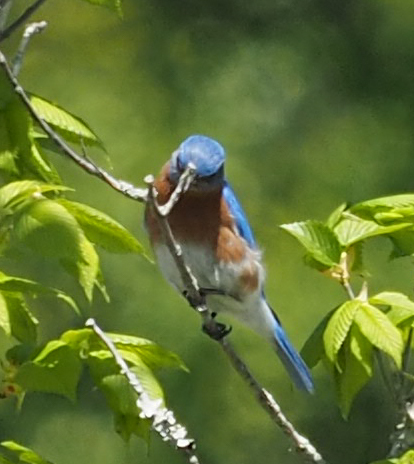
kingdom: Animalia
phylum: Chordata
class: Aves
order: Passeriformes
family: Turdidae
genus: Sialia
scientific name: Sialia sialis
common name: Eastern bluebird
